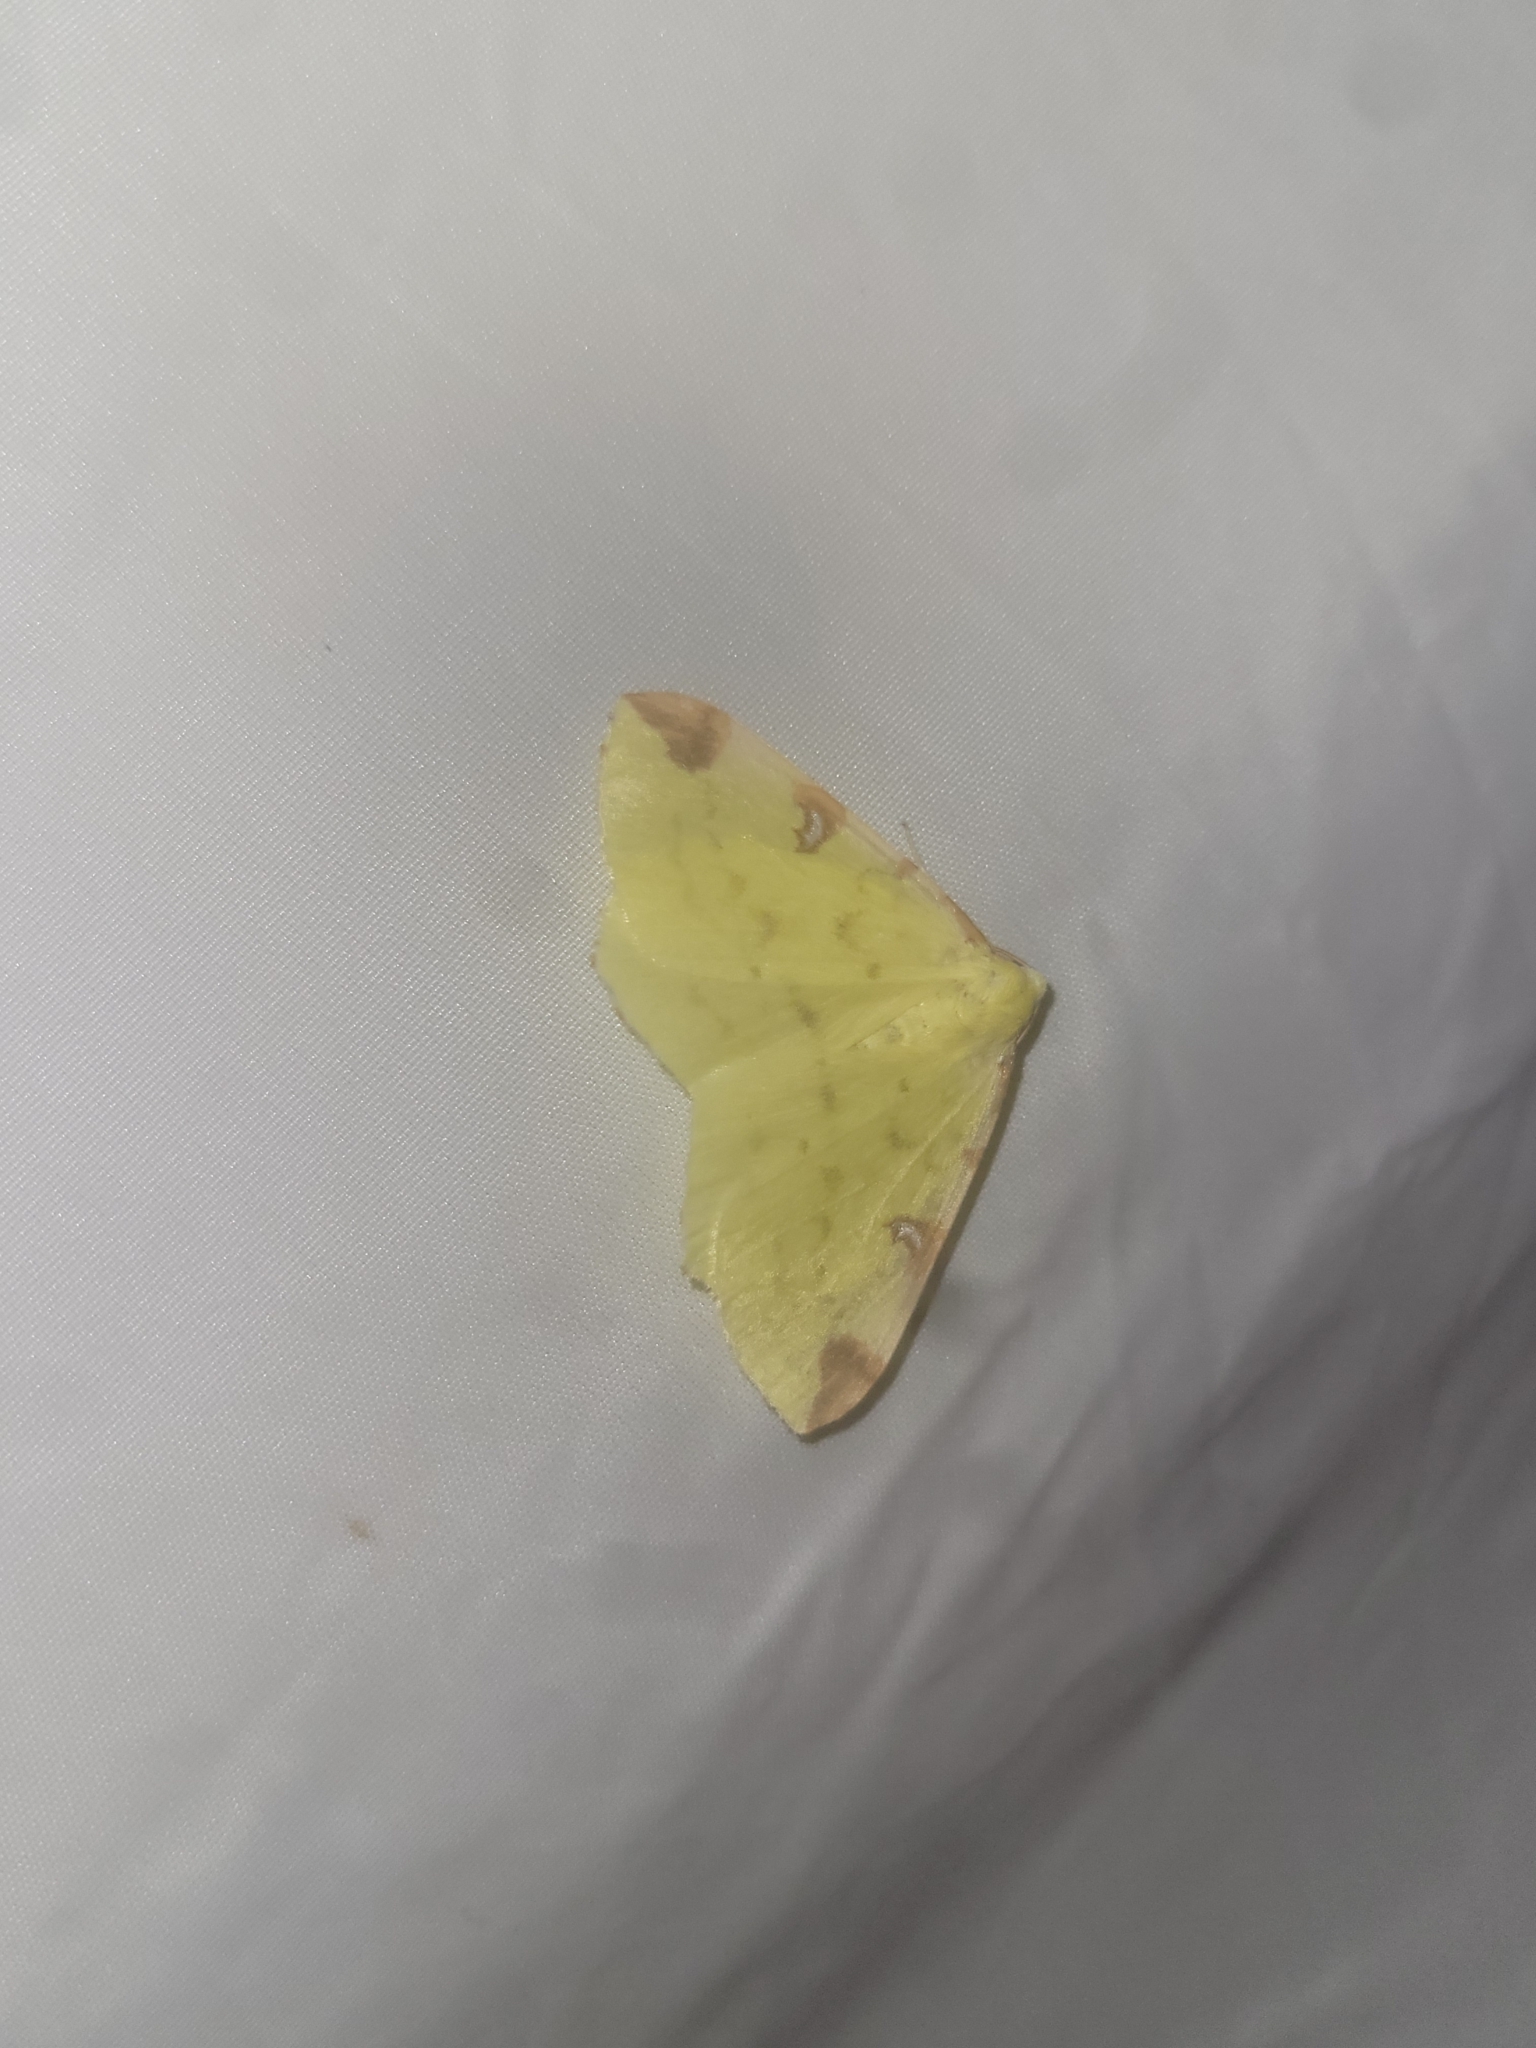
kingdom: Animalia
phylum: Arthropoda
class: Insecta
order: Lepidoptera
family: Geometridae
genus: Opisthograptis
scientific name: Opisthograptis luteolata
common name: Brimstone moth
